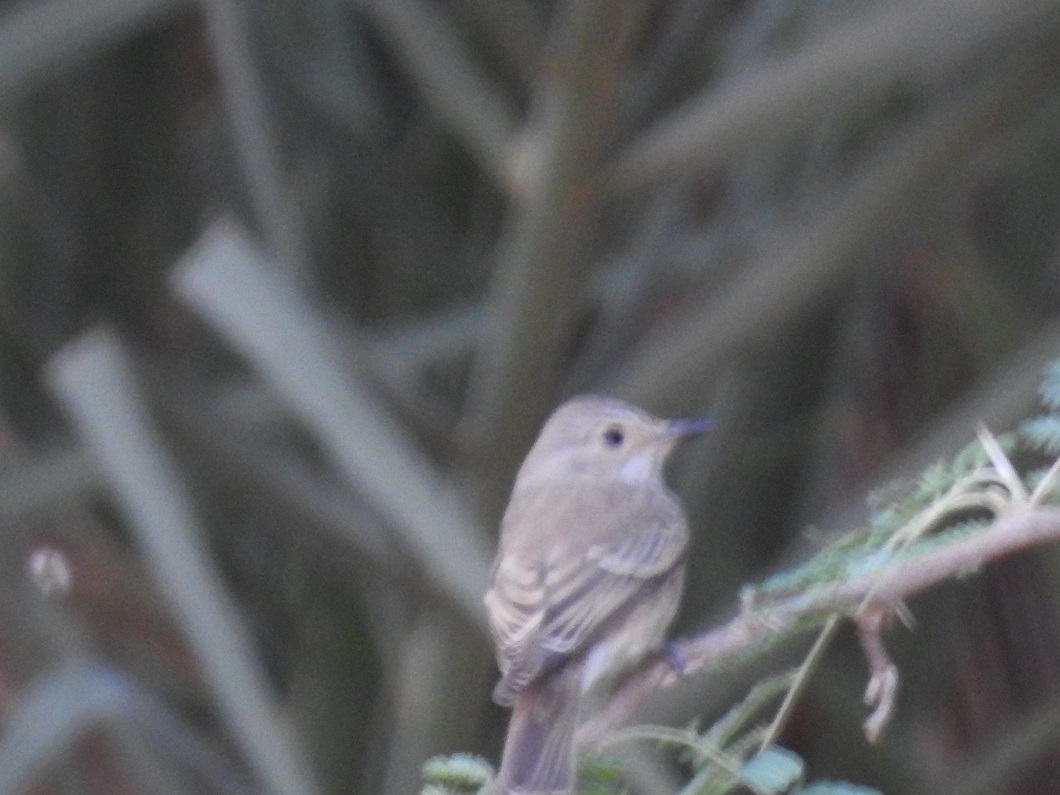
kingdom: Animalia
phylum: Chordata
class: Aves
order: Passeriformes
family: Muscicapidae
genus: Muscicapa
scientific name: Muscicapa striata
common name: Spotted flycatcher
